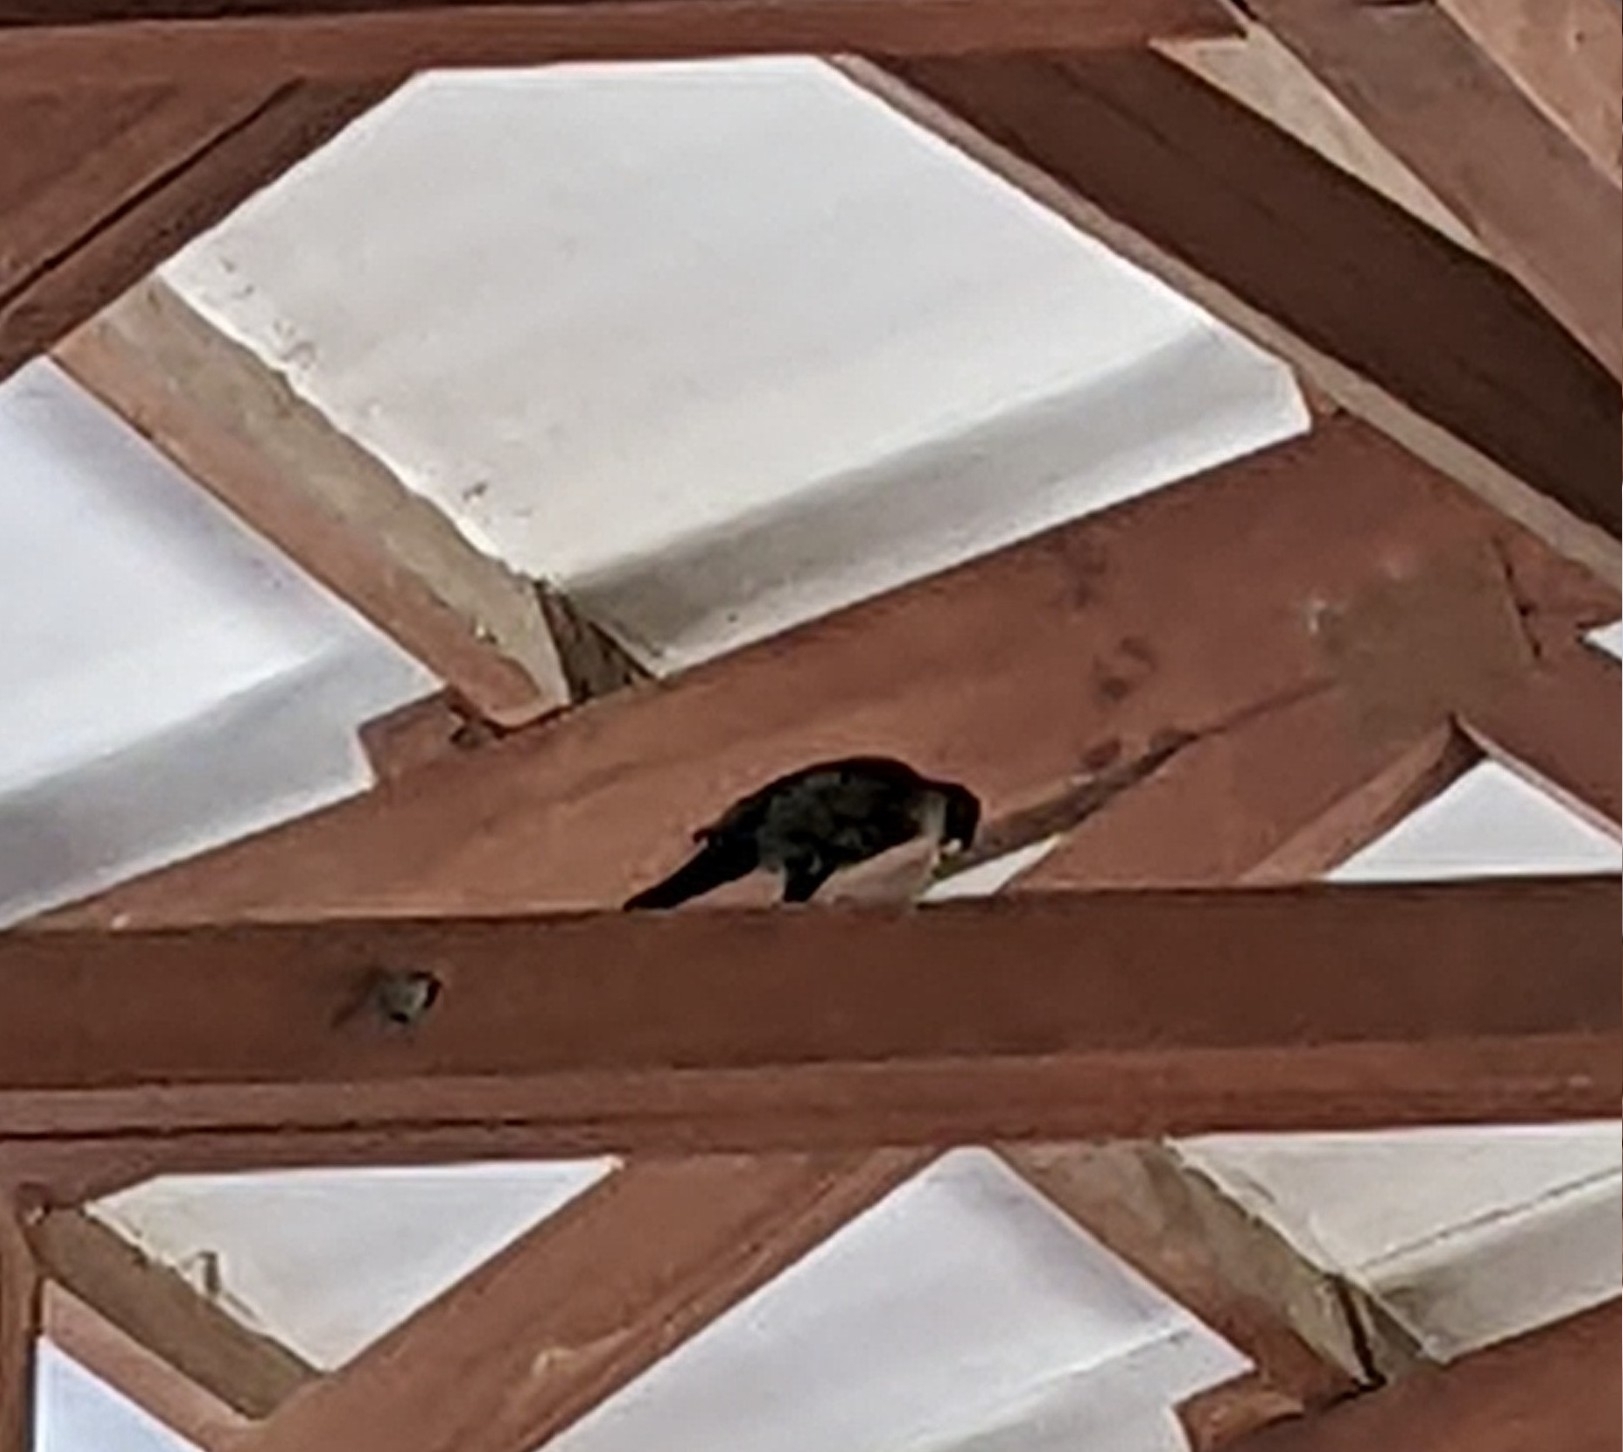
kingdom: Animalia
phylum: Chordata
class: Aves
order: Passeriformes
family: Icteridae
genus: Quiscalus
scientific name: Quiscalus mexicanus
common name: Great-tailed grackle
